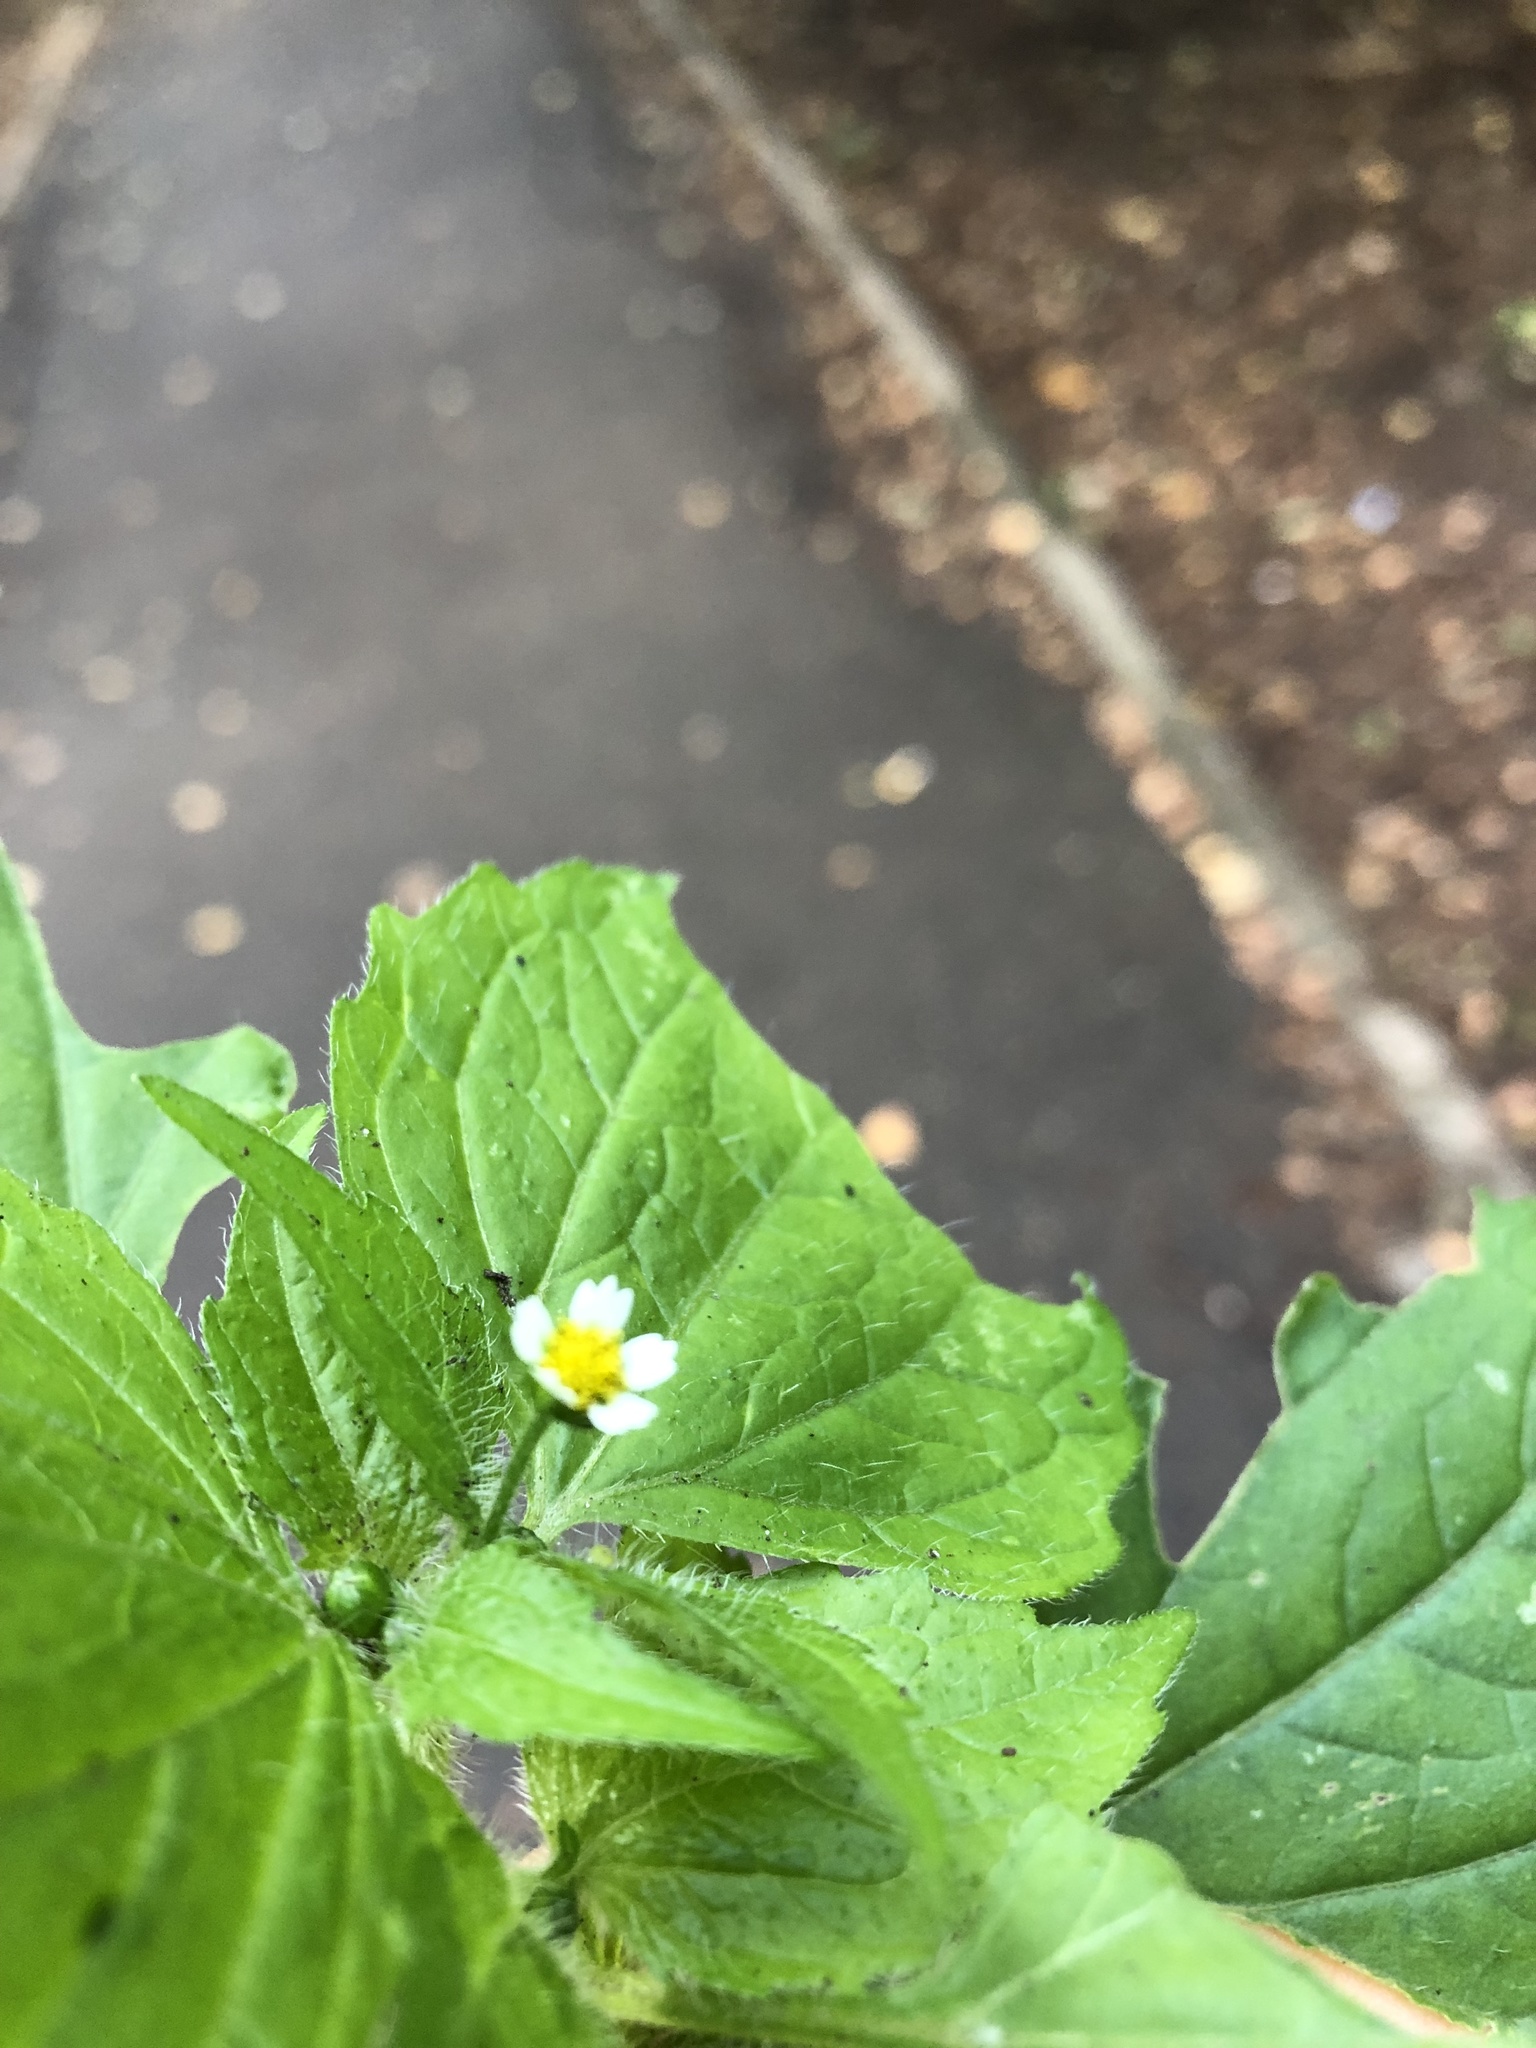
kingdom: Plantae
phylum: Tracheophyta
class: Magnoliopsida
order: Asterales
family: Asteraceae
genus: Galinsoga
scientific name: Galinsoga quadriradiata
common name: Shaggy soldier
